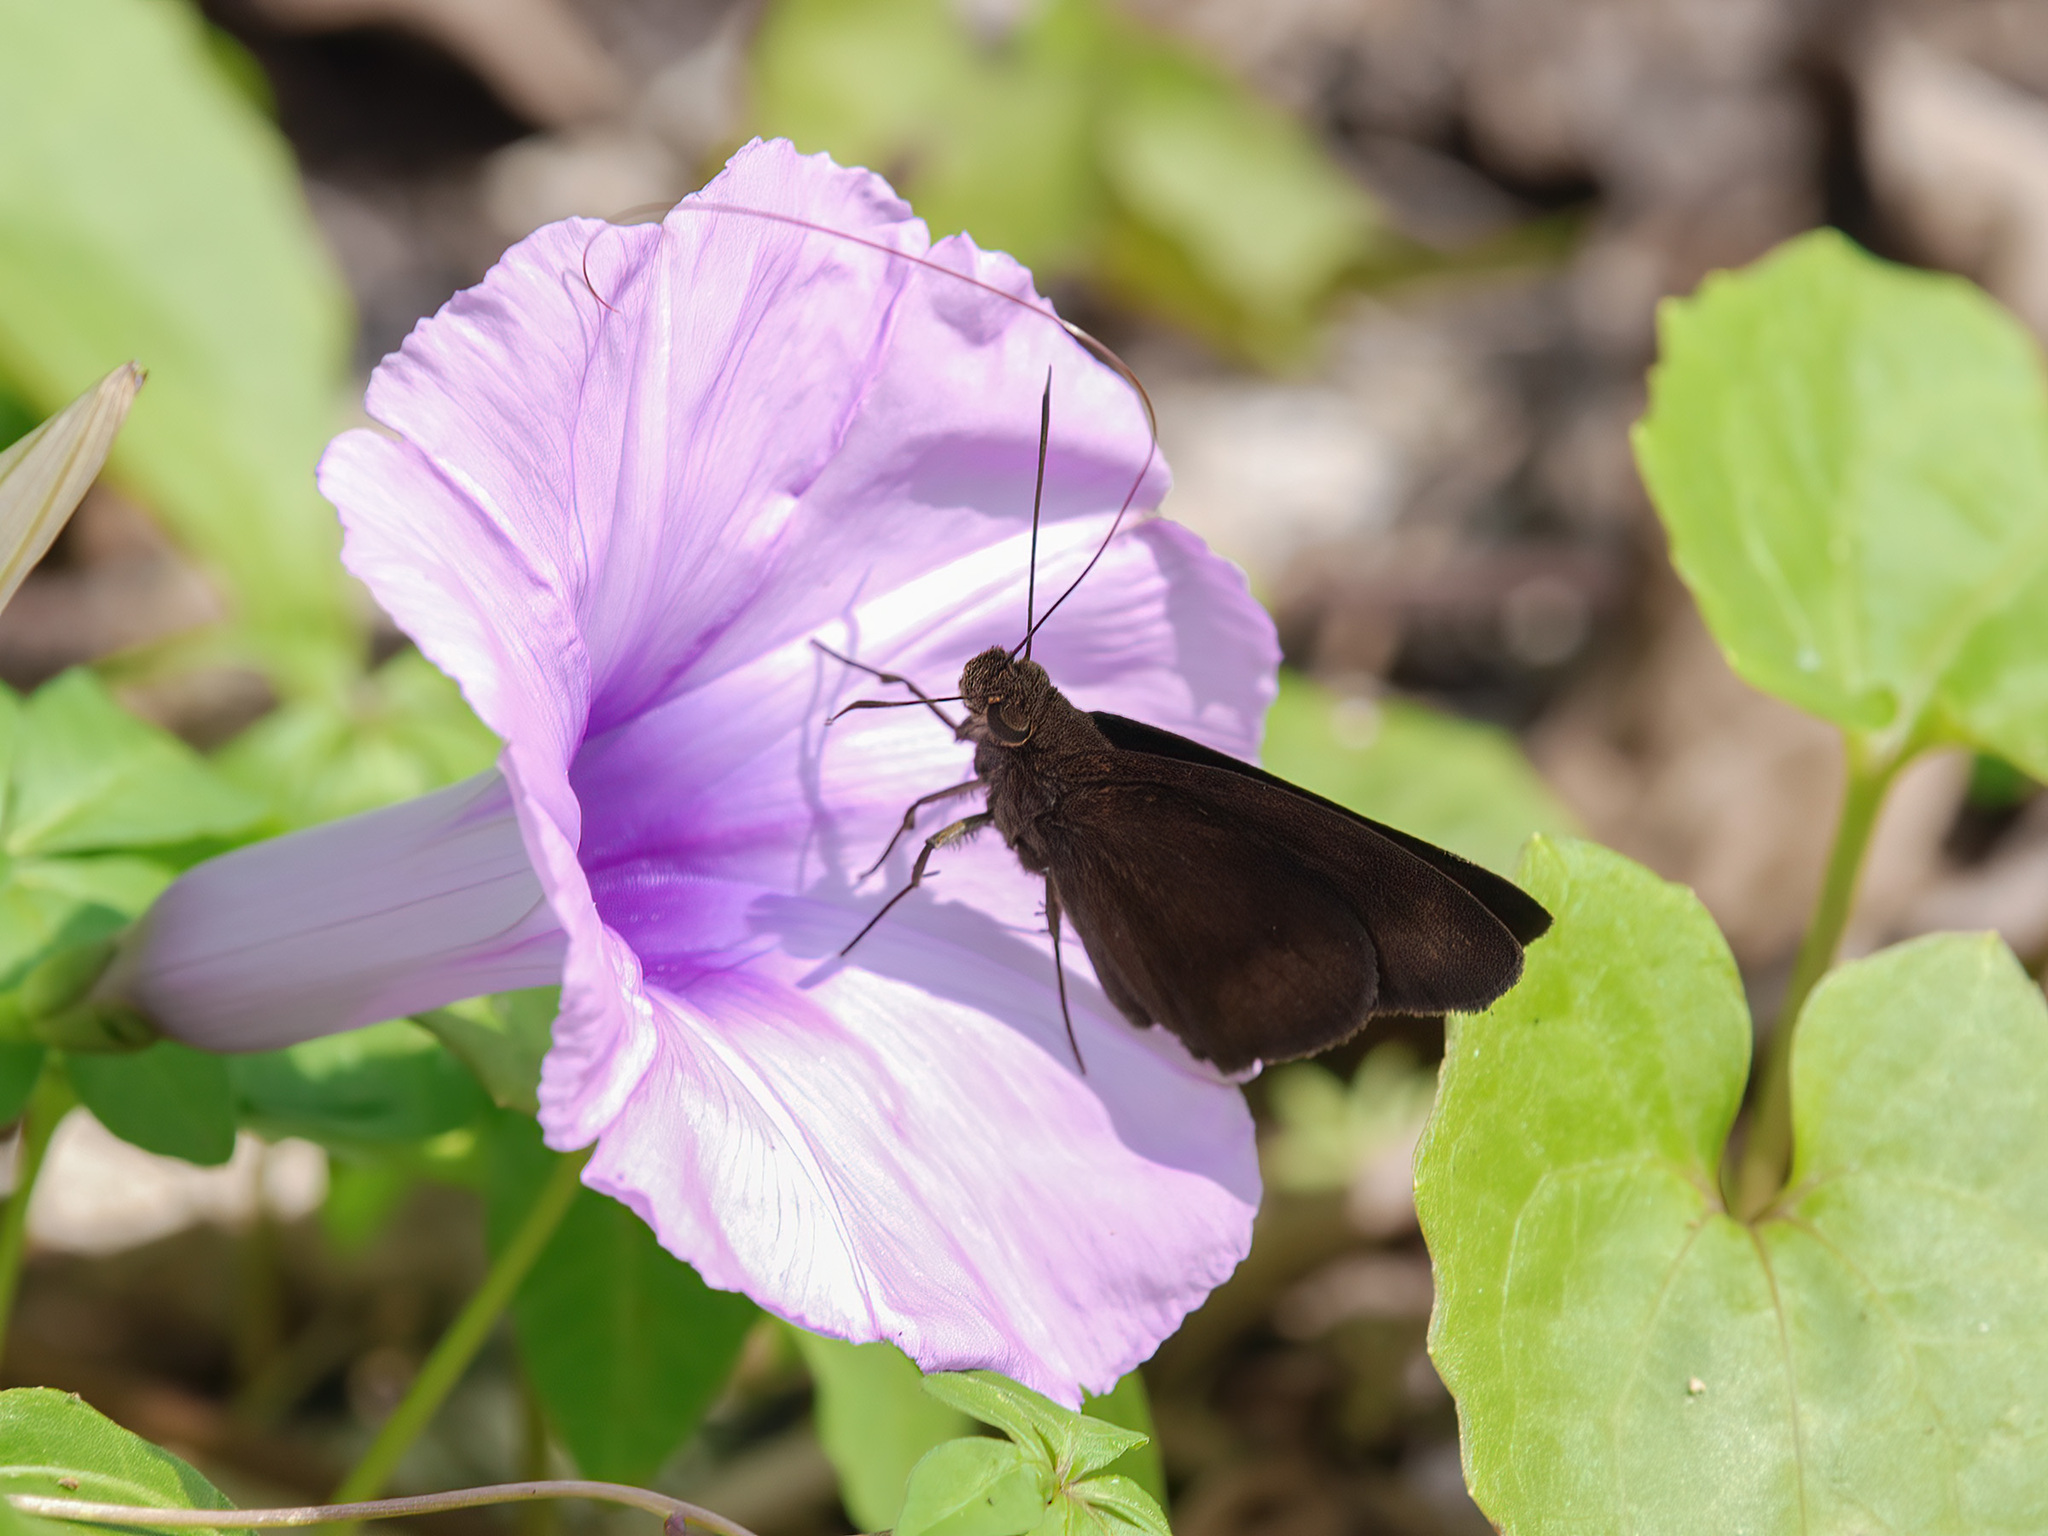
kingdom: Animalia
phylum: Arthropoda
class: Insecta
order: Lepidoptera
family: Hesperiidae
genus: Ancistroides
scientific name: Ancistroides nigrita
